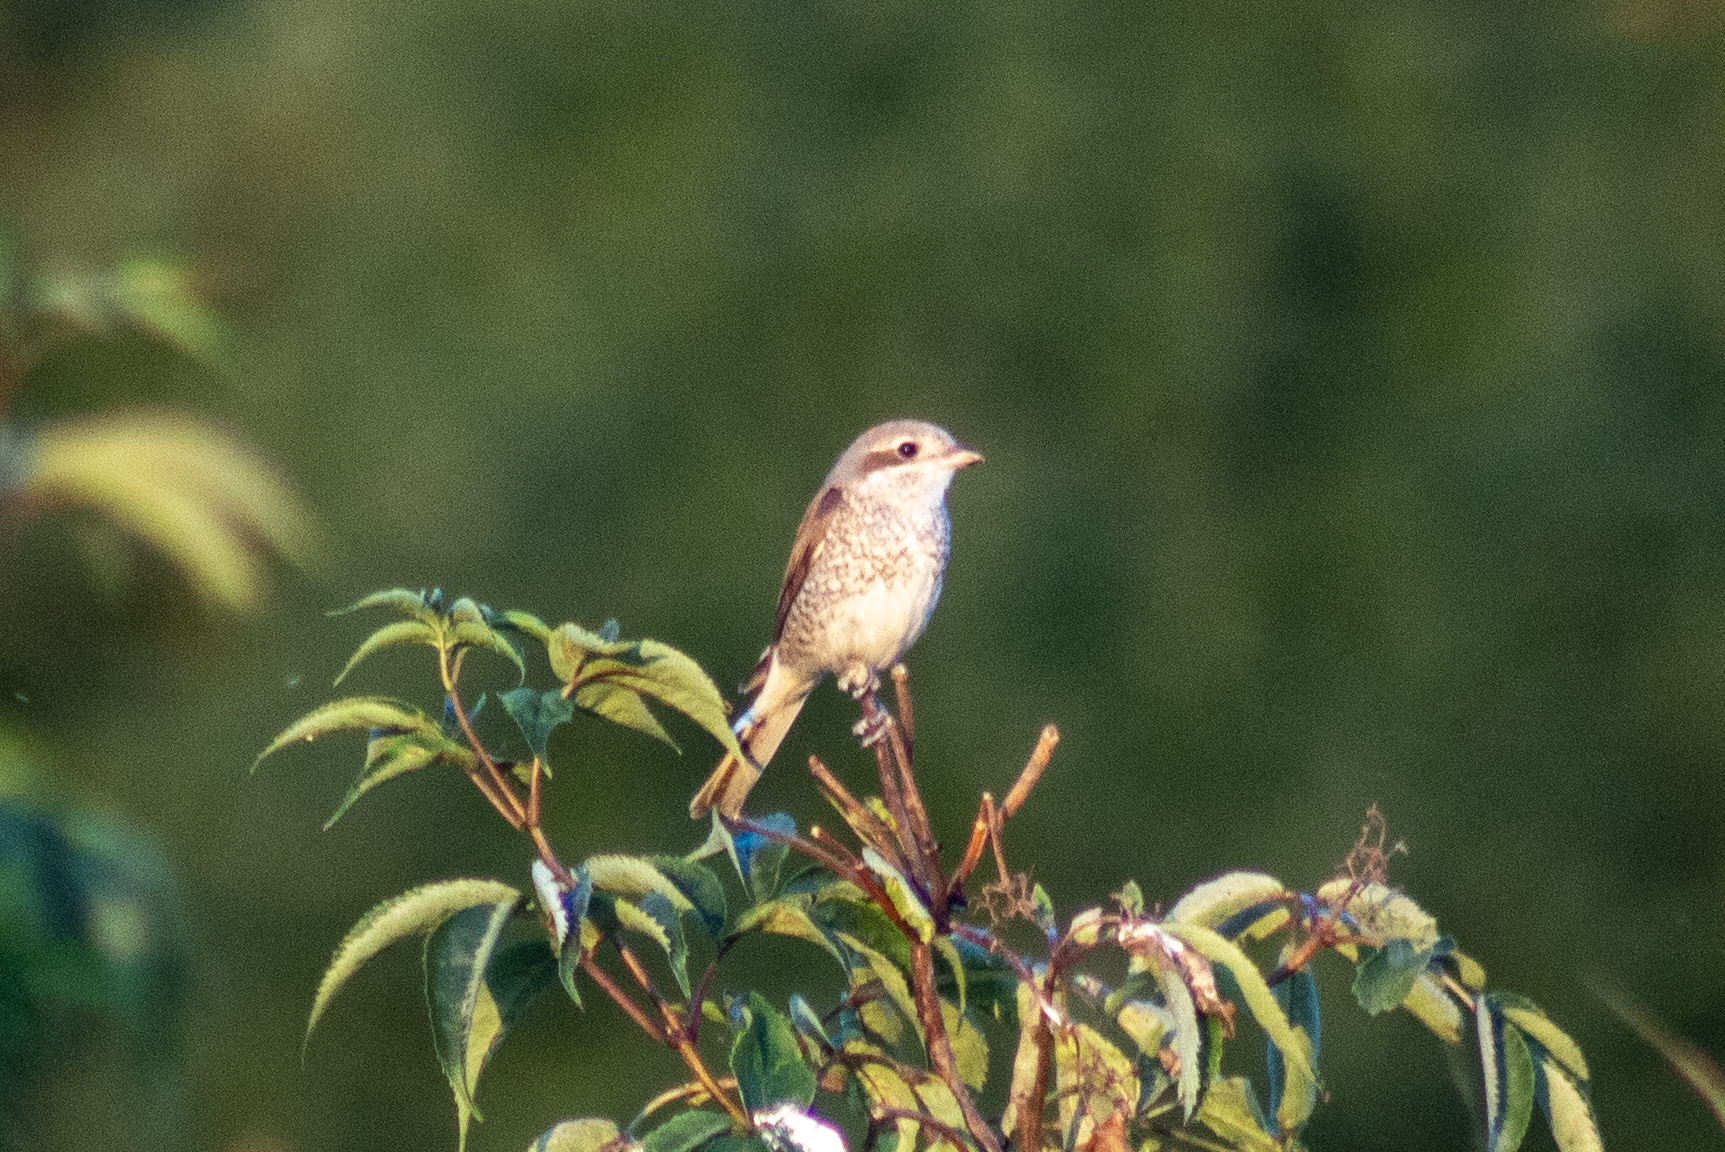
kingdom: Animalia
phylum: Chordata
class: Aves
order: Passeriformes
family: Laniidae
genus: Lanius
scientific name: Lanius collurio
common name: Red-backed shrike
